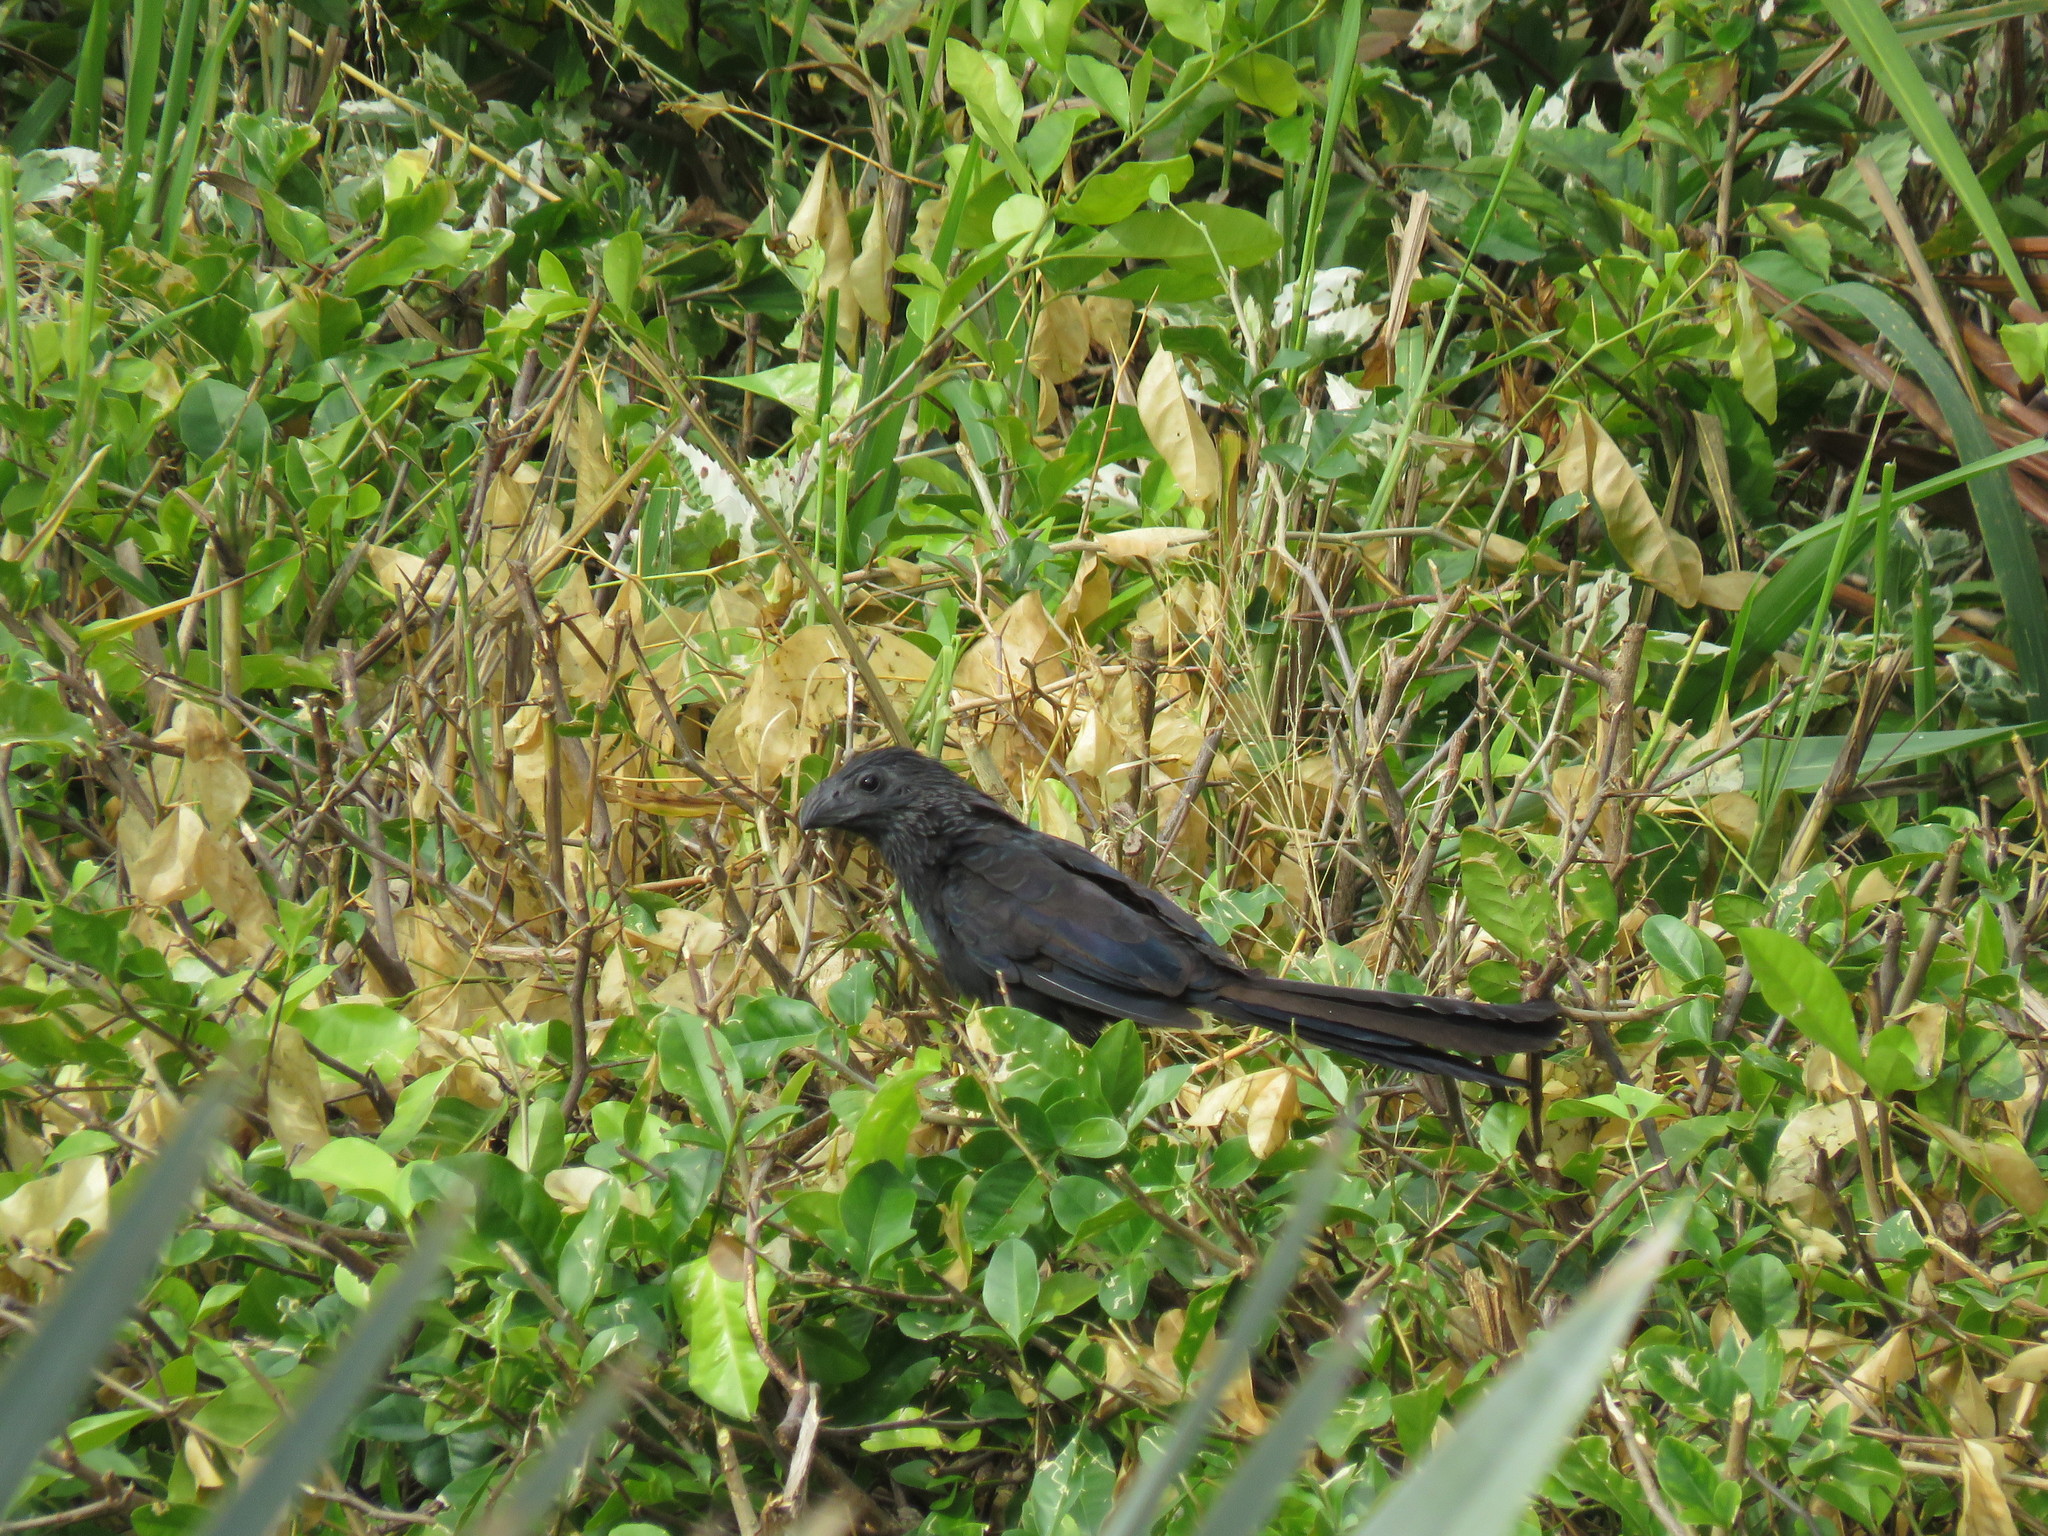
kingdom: Animalia
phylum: Chordata
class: Aves
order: Cuculiformes
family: Cuculidae
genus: Crotophaga
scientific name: Crotophaga sulcirostris
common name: Groove-billed ani
